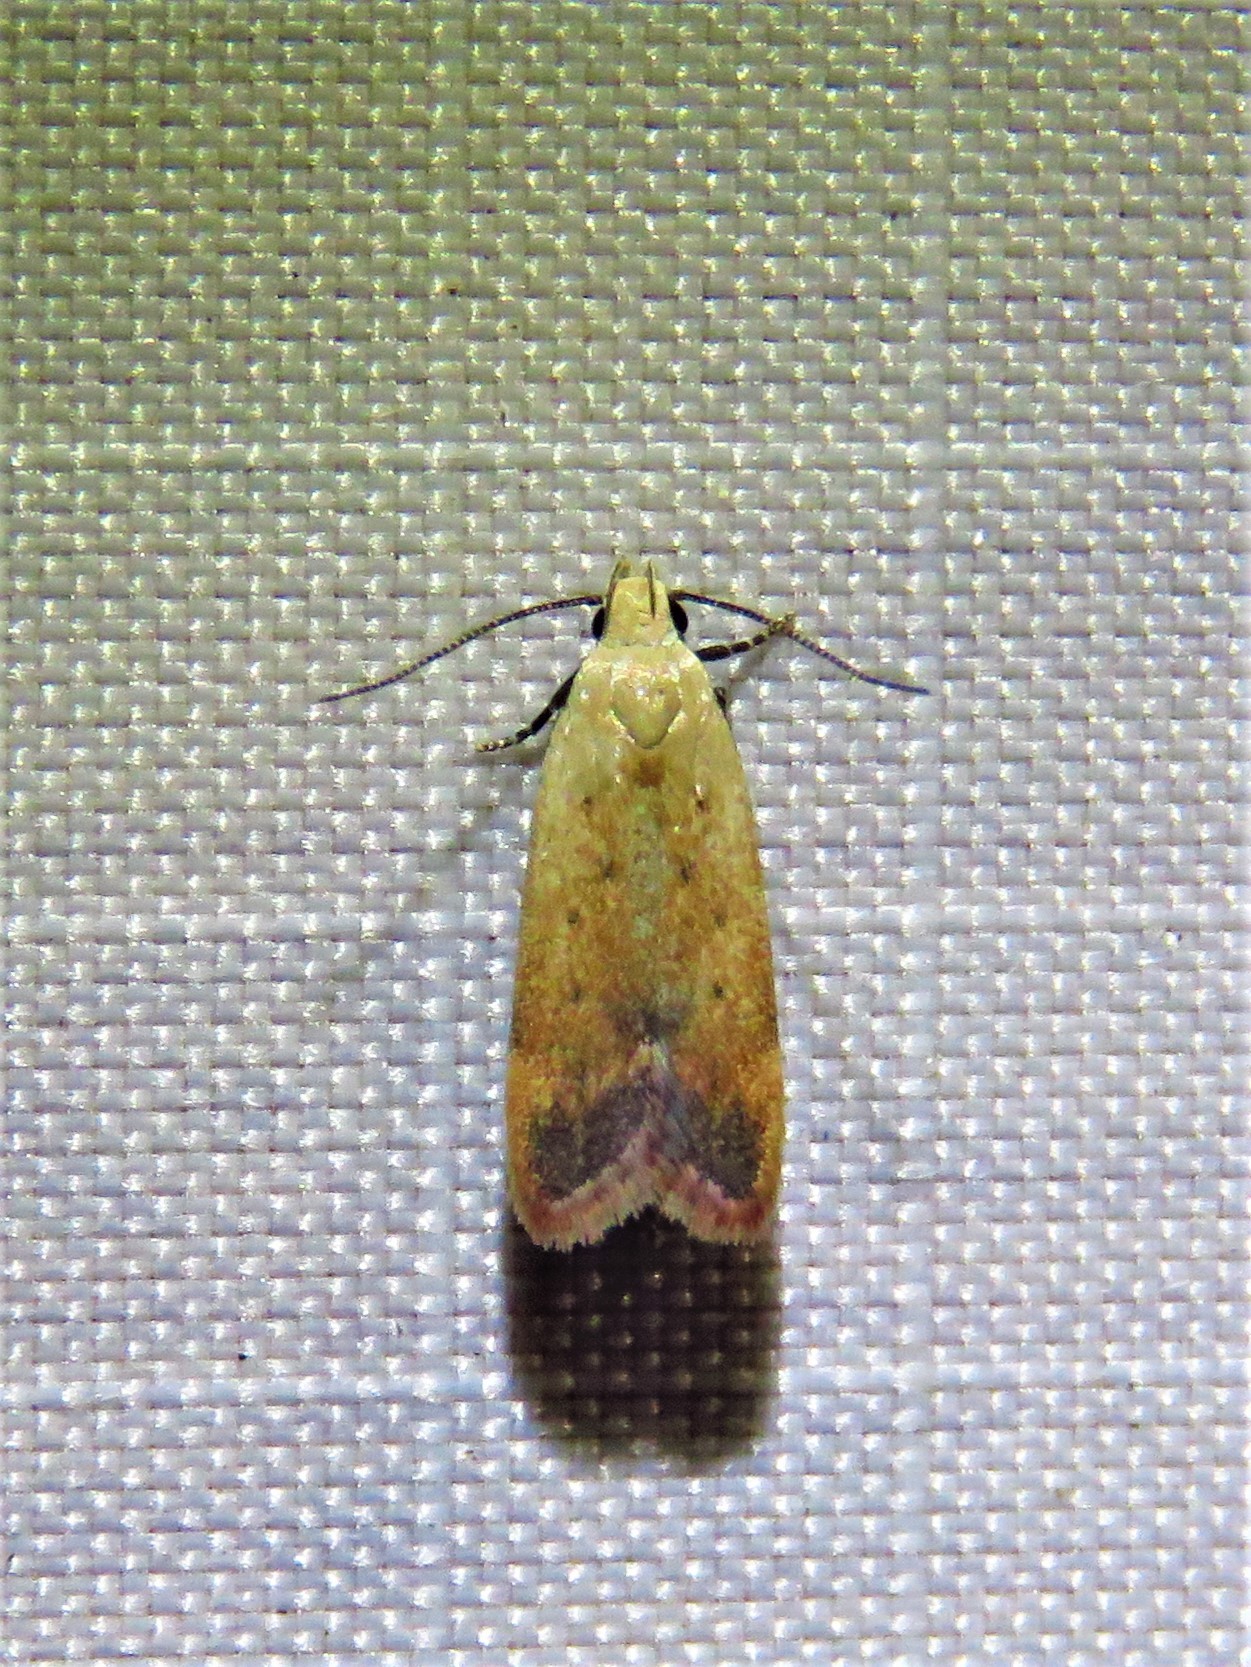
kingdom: Animalia
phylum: Arthropoda
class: Insecta
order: Lepidoptera
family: Gelechiidae
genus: Anacampsis
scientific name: Anacampsis fullonella
